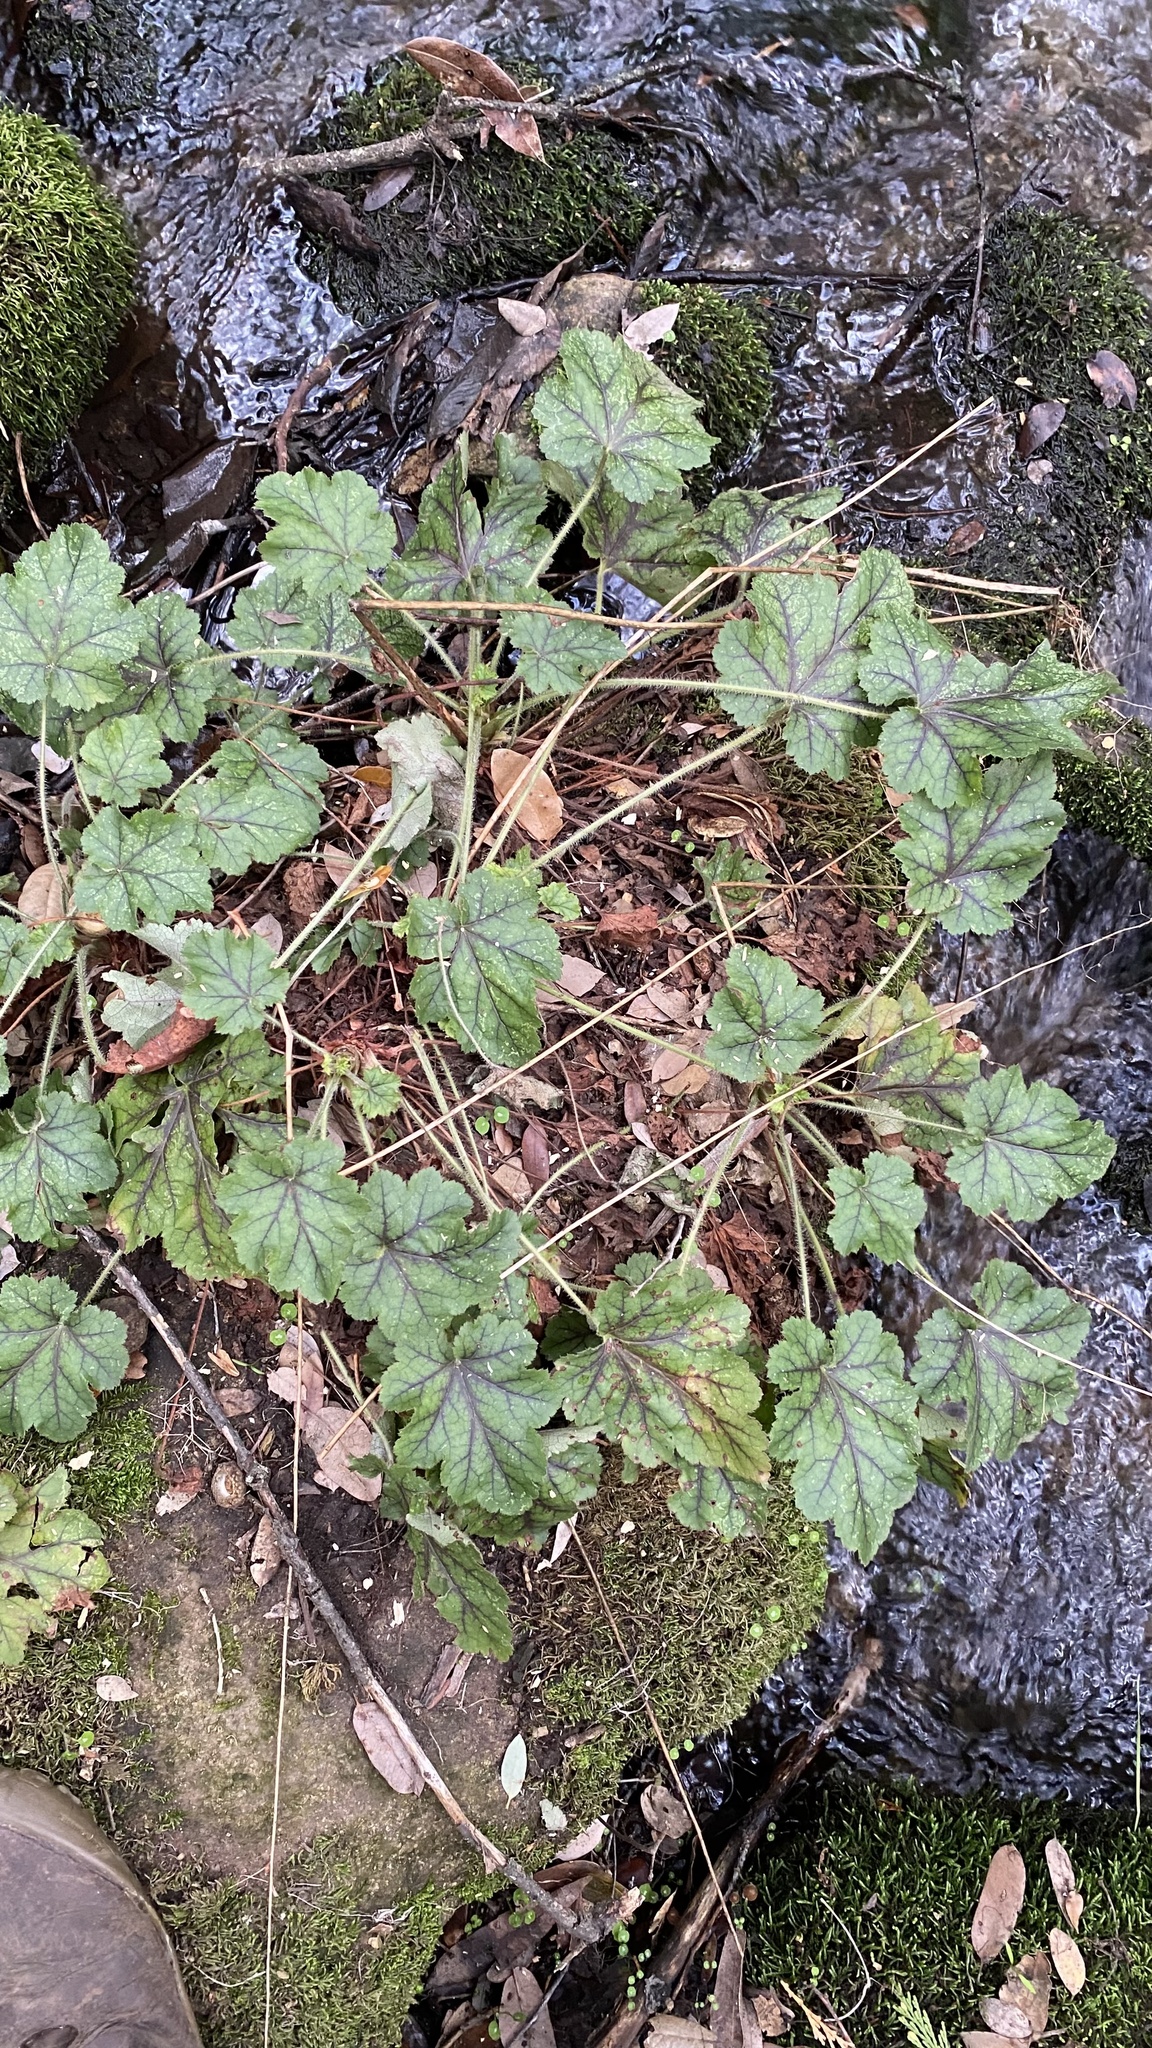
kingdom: Plantae
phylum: Tracheophyta
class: Magnoliopsida
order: Saxifragales
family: Saxifragaceae
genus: Heuchera
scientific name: Heuchera micrantha
